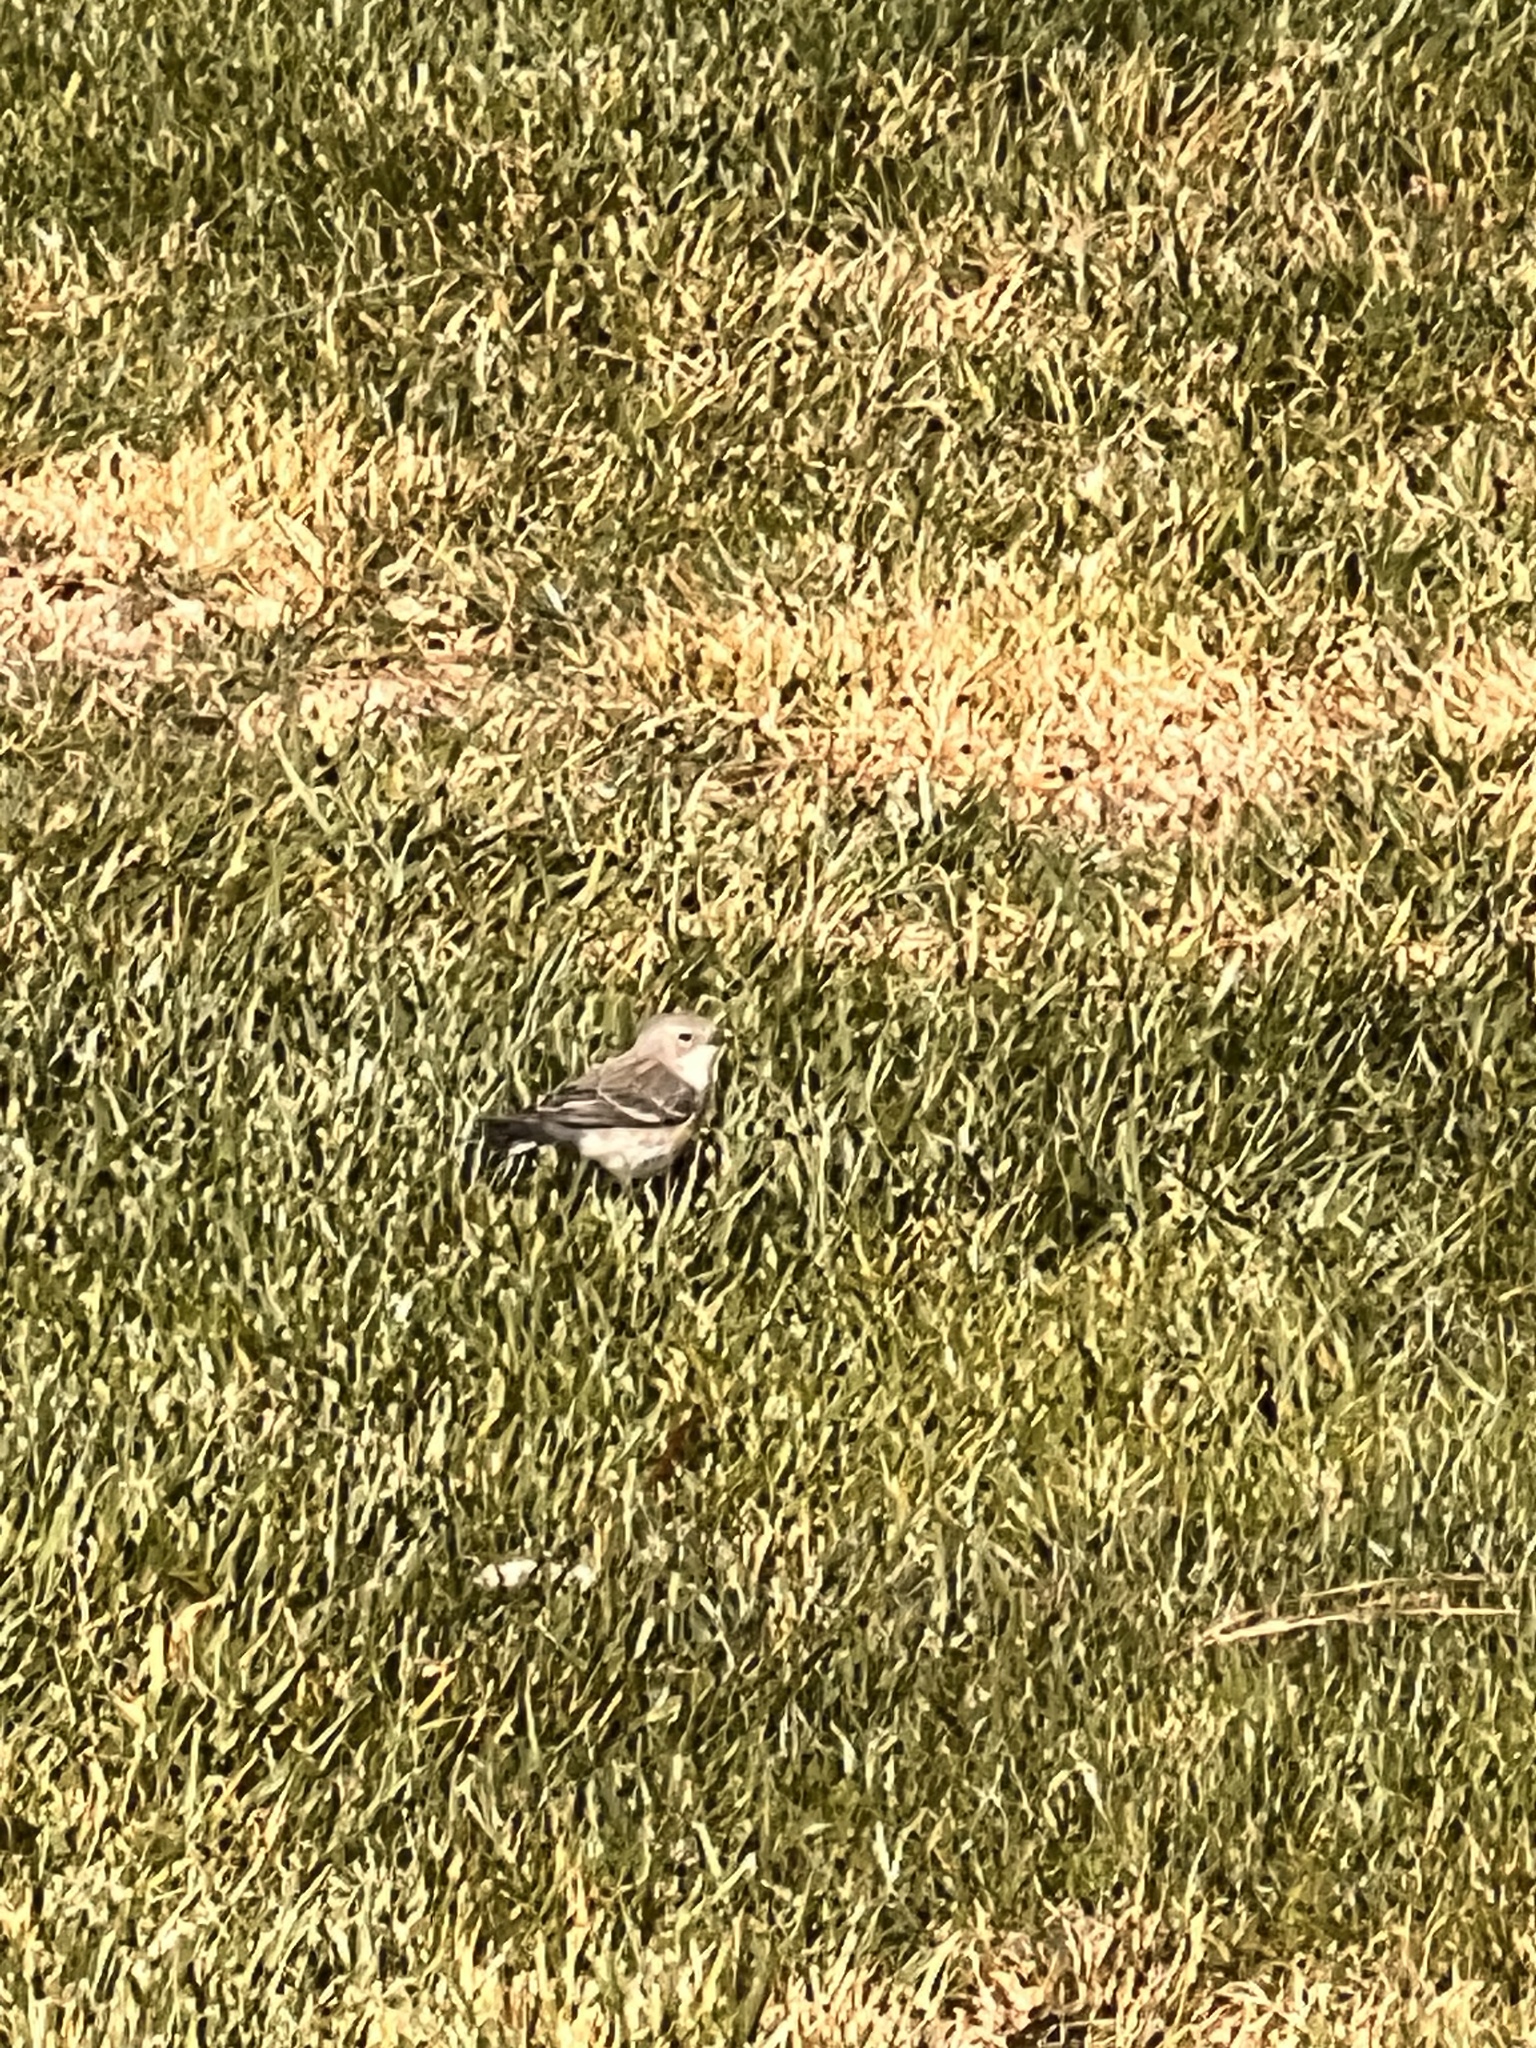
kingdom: Animalia
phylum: Chordata
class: Aves
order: Passeriformes
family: Parulidae
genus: Setophaga
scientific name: Setophaga coronata
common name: Myrtle warbler
